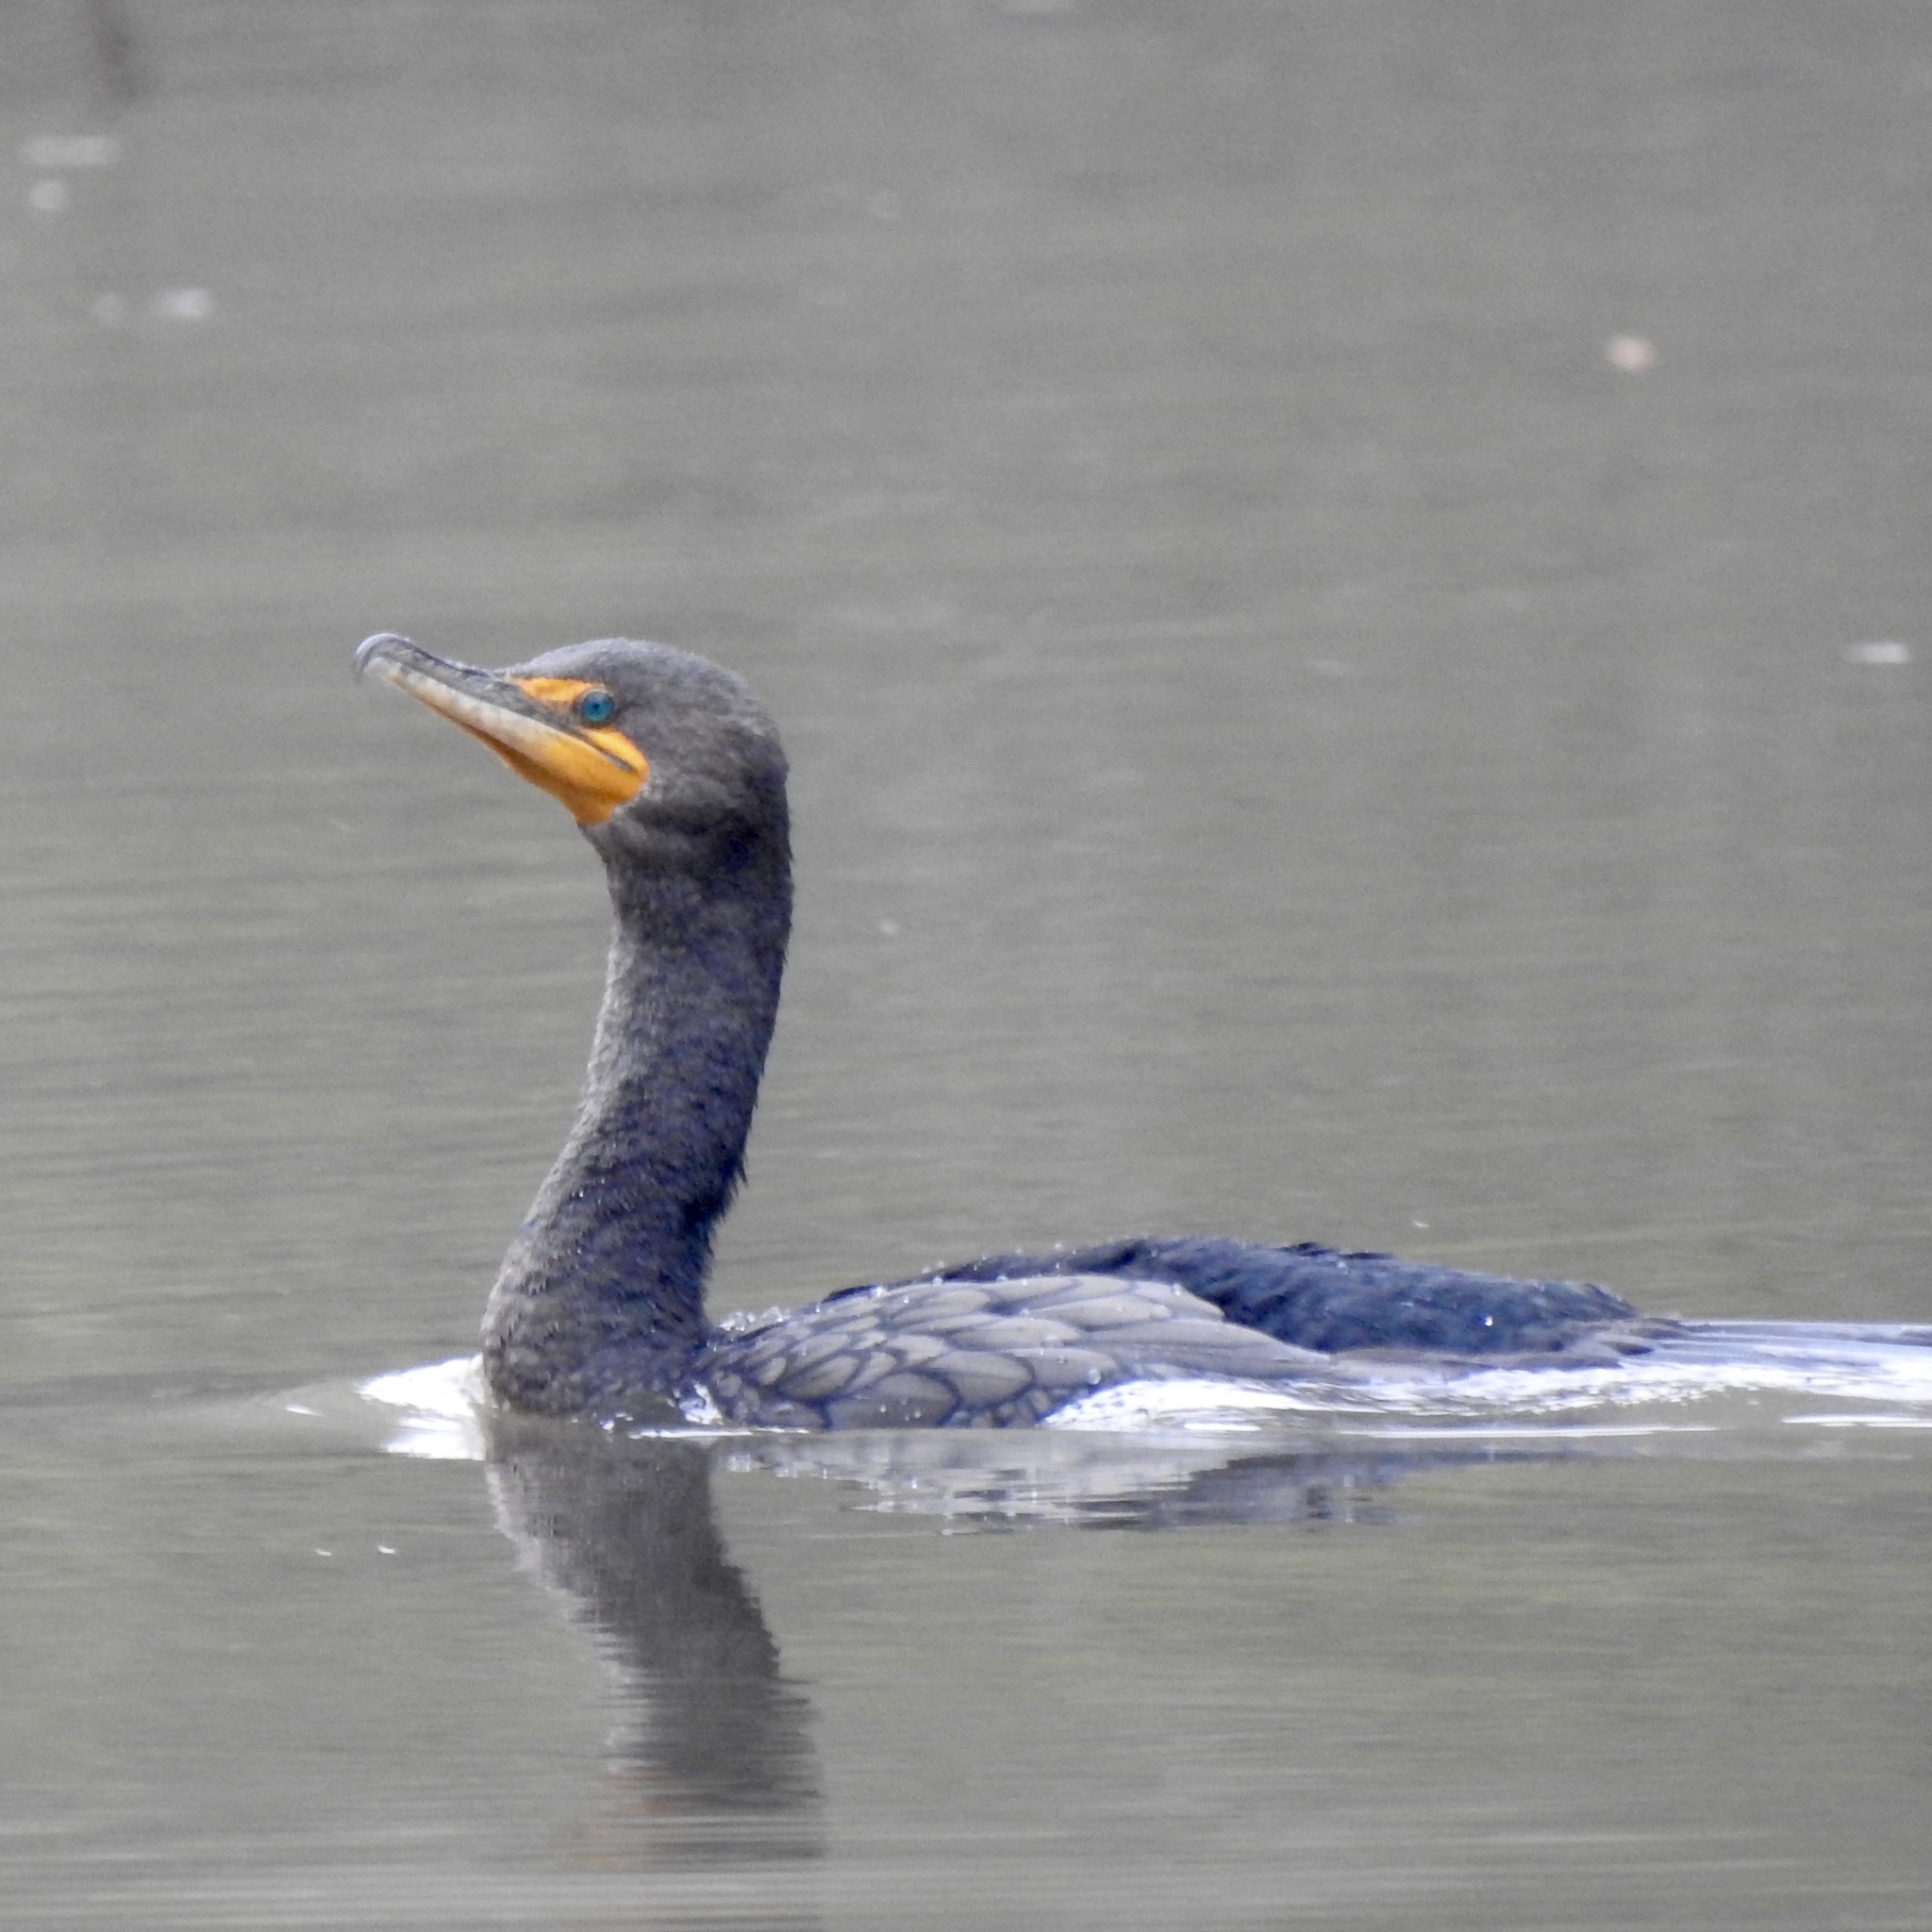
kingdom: Animalia
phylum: Chordata
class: Aves
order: Suliformes
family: Phalacrocoracidae
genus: Phalacrocorax
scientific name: Phalacrocorax auritus
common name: Double-crested cormorant
